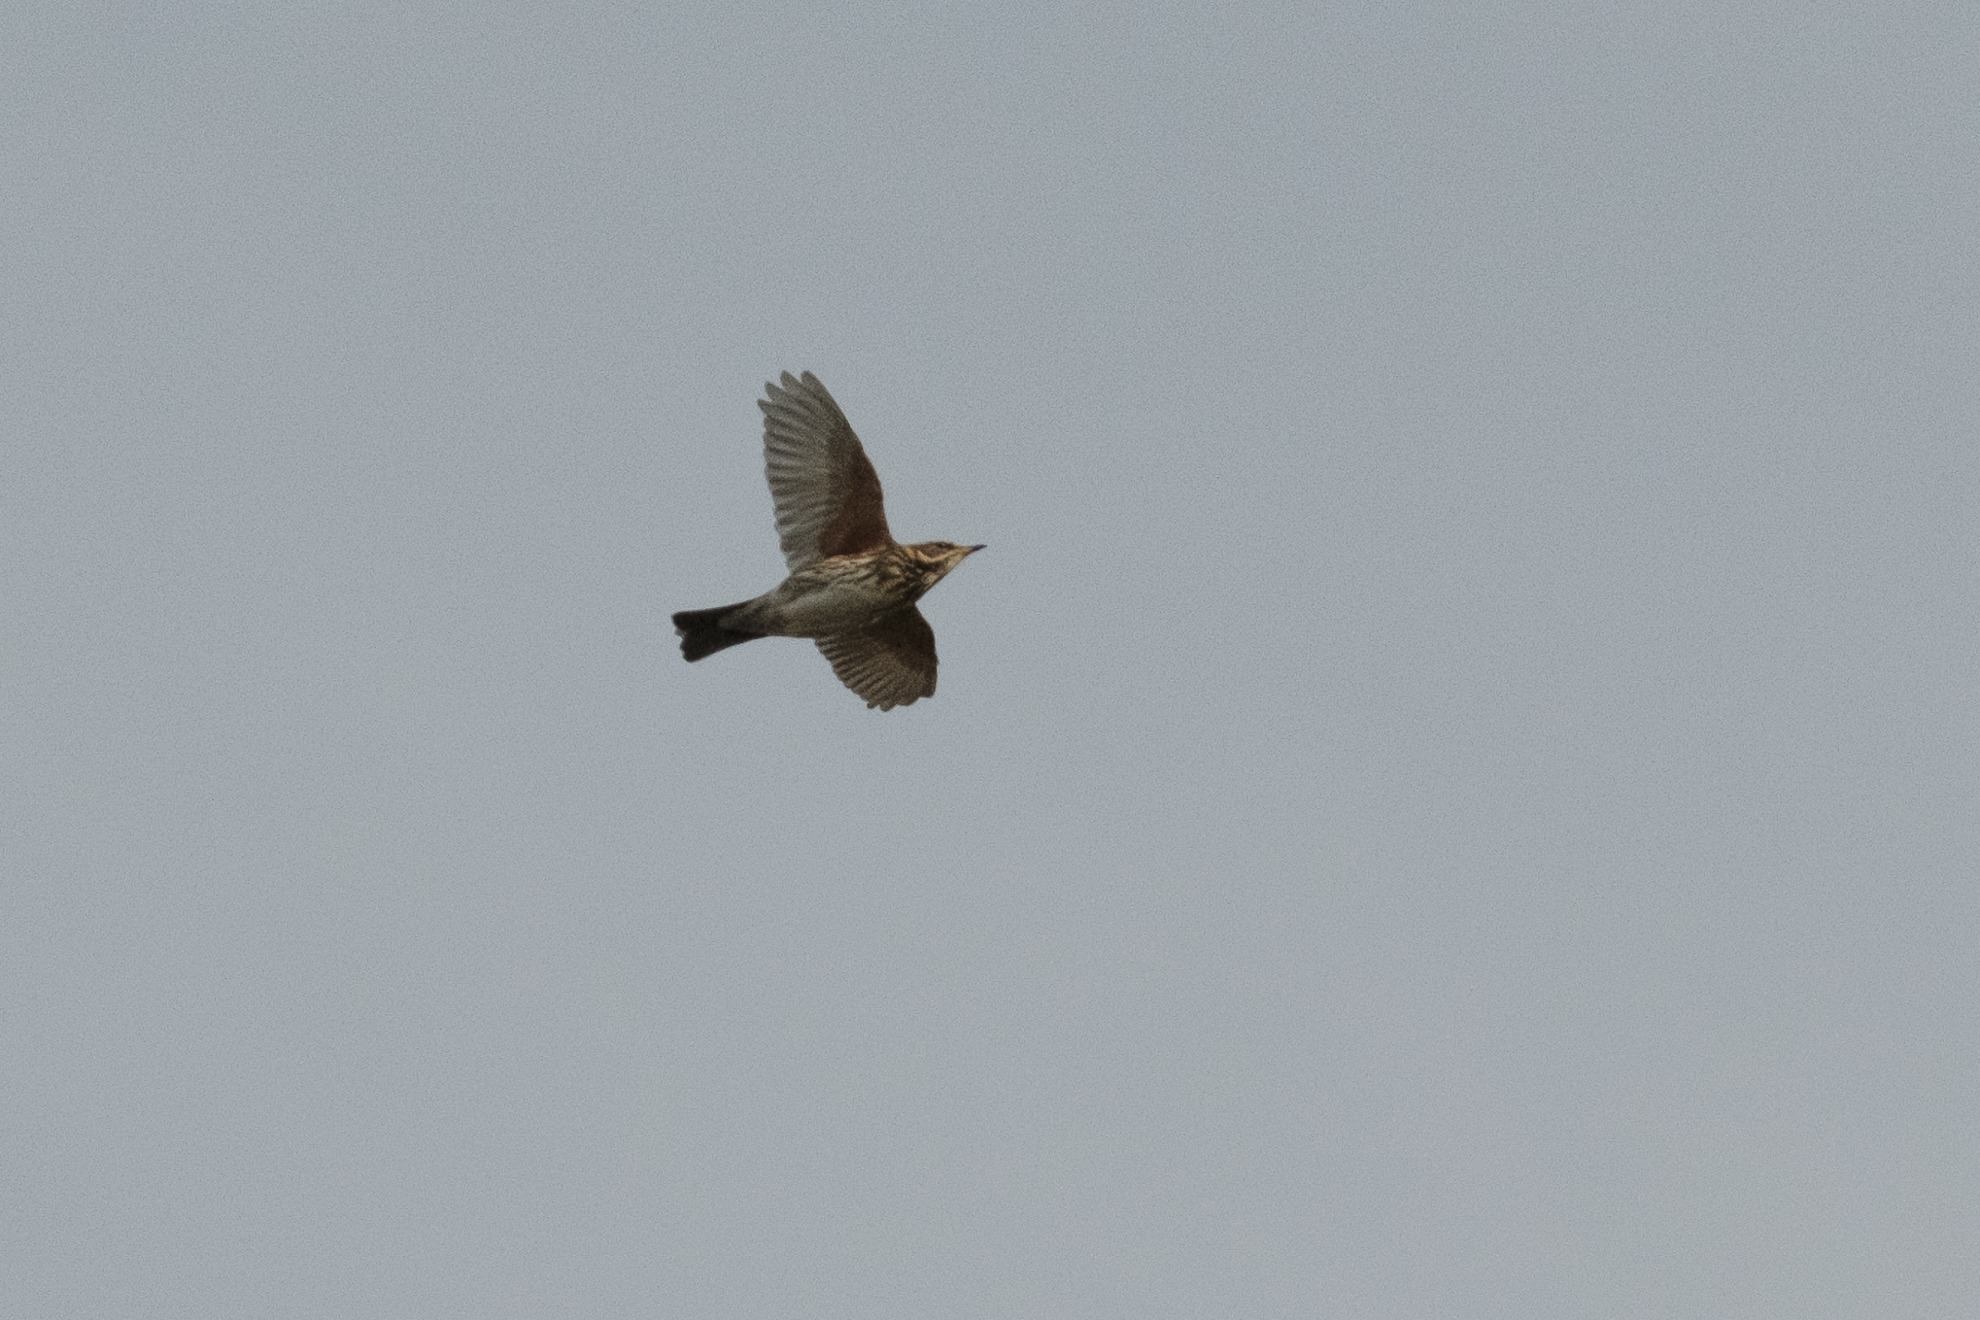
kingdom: Animalia
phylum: Chordata
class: Aves
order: Passeriformes
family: Turdidae
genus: Turdus
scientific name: Turdus iliacus
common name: Redwing
